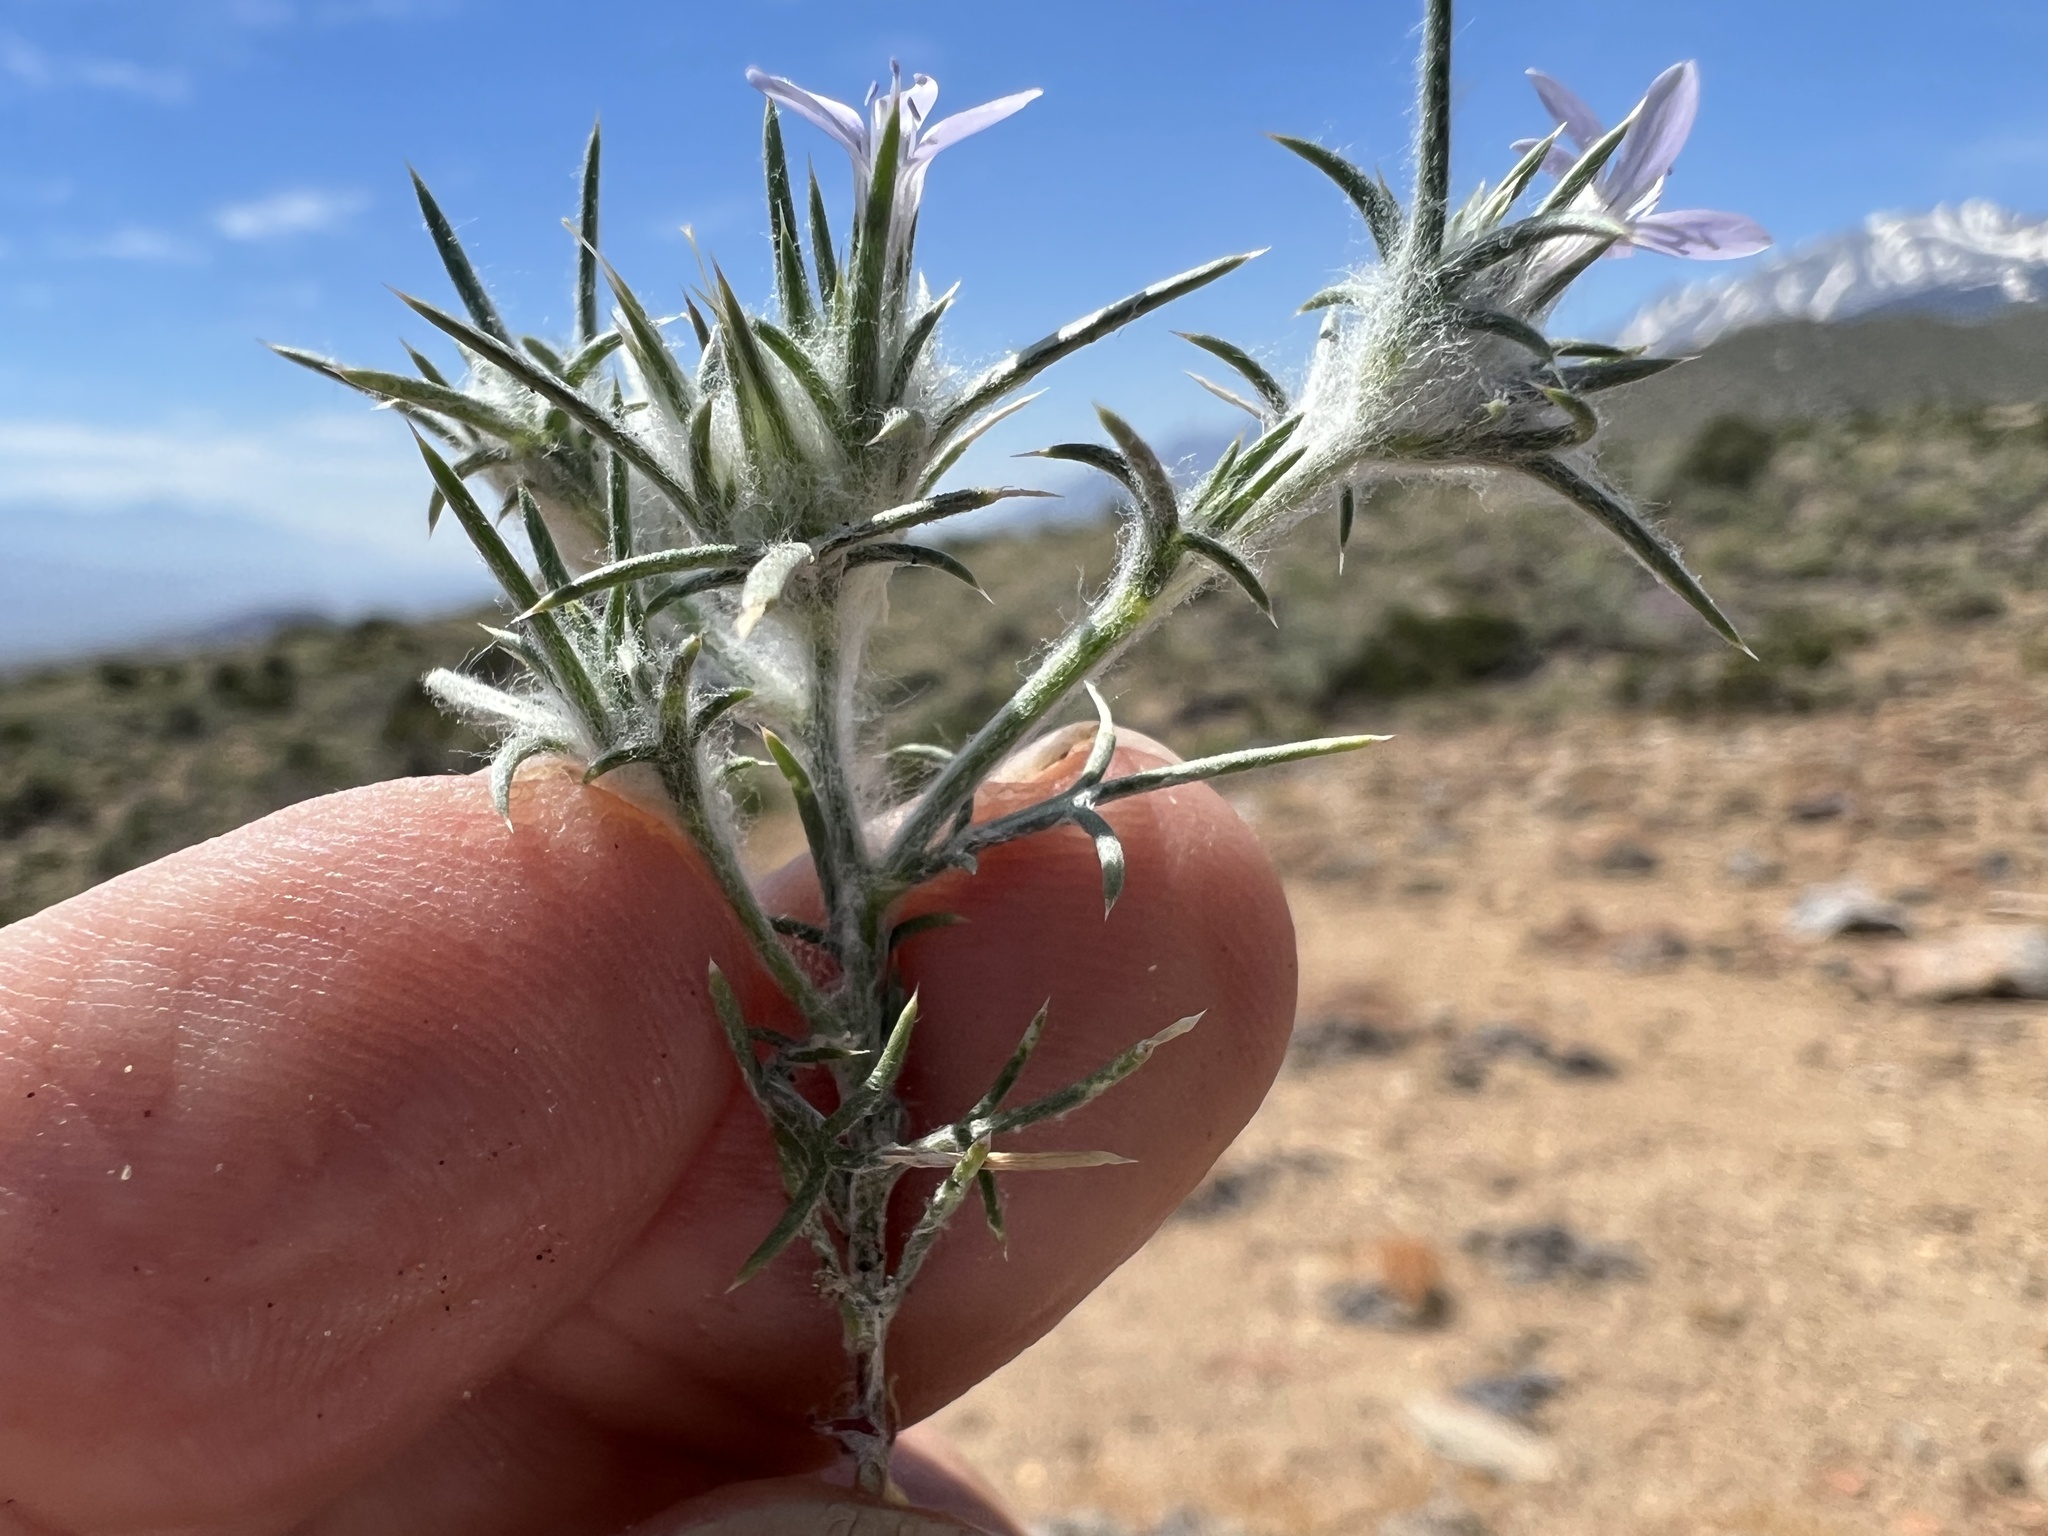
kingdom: Plantae
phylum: Tracheophyta
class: Magnoliopsida
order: Ericales
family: Polemoniaceae
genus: Eriastrum
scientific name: Eriastrum wilcoxii
